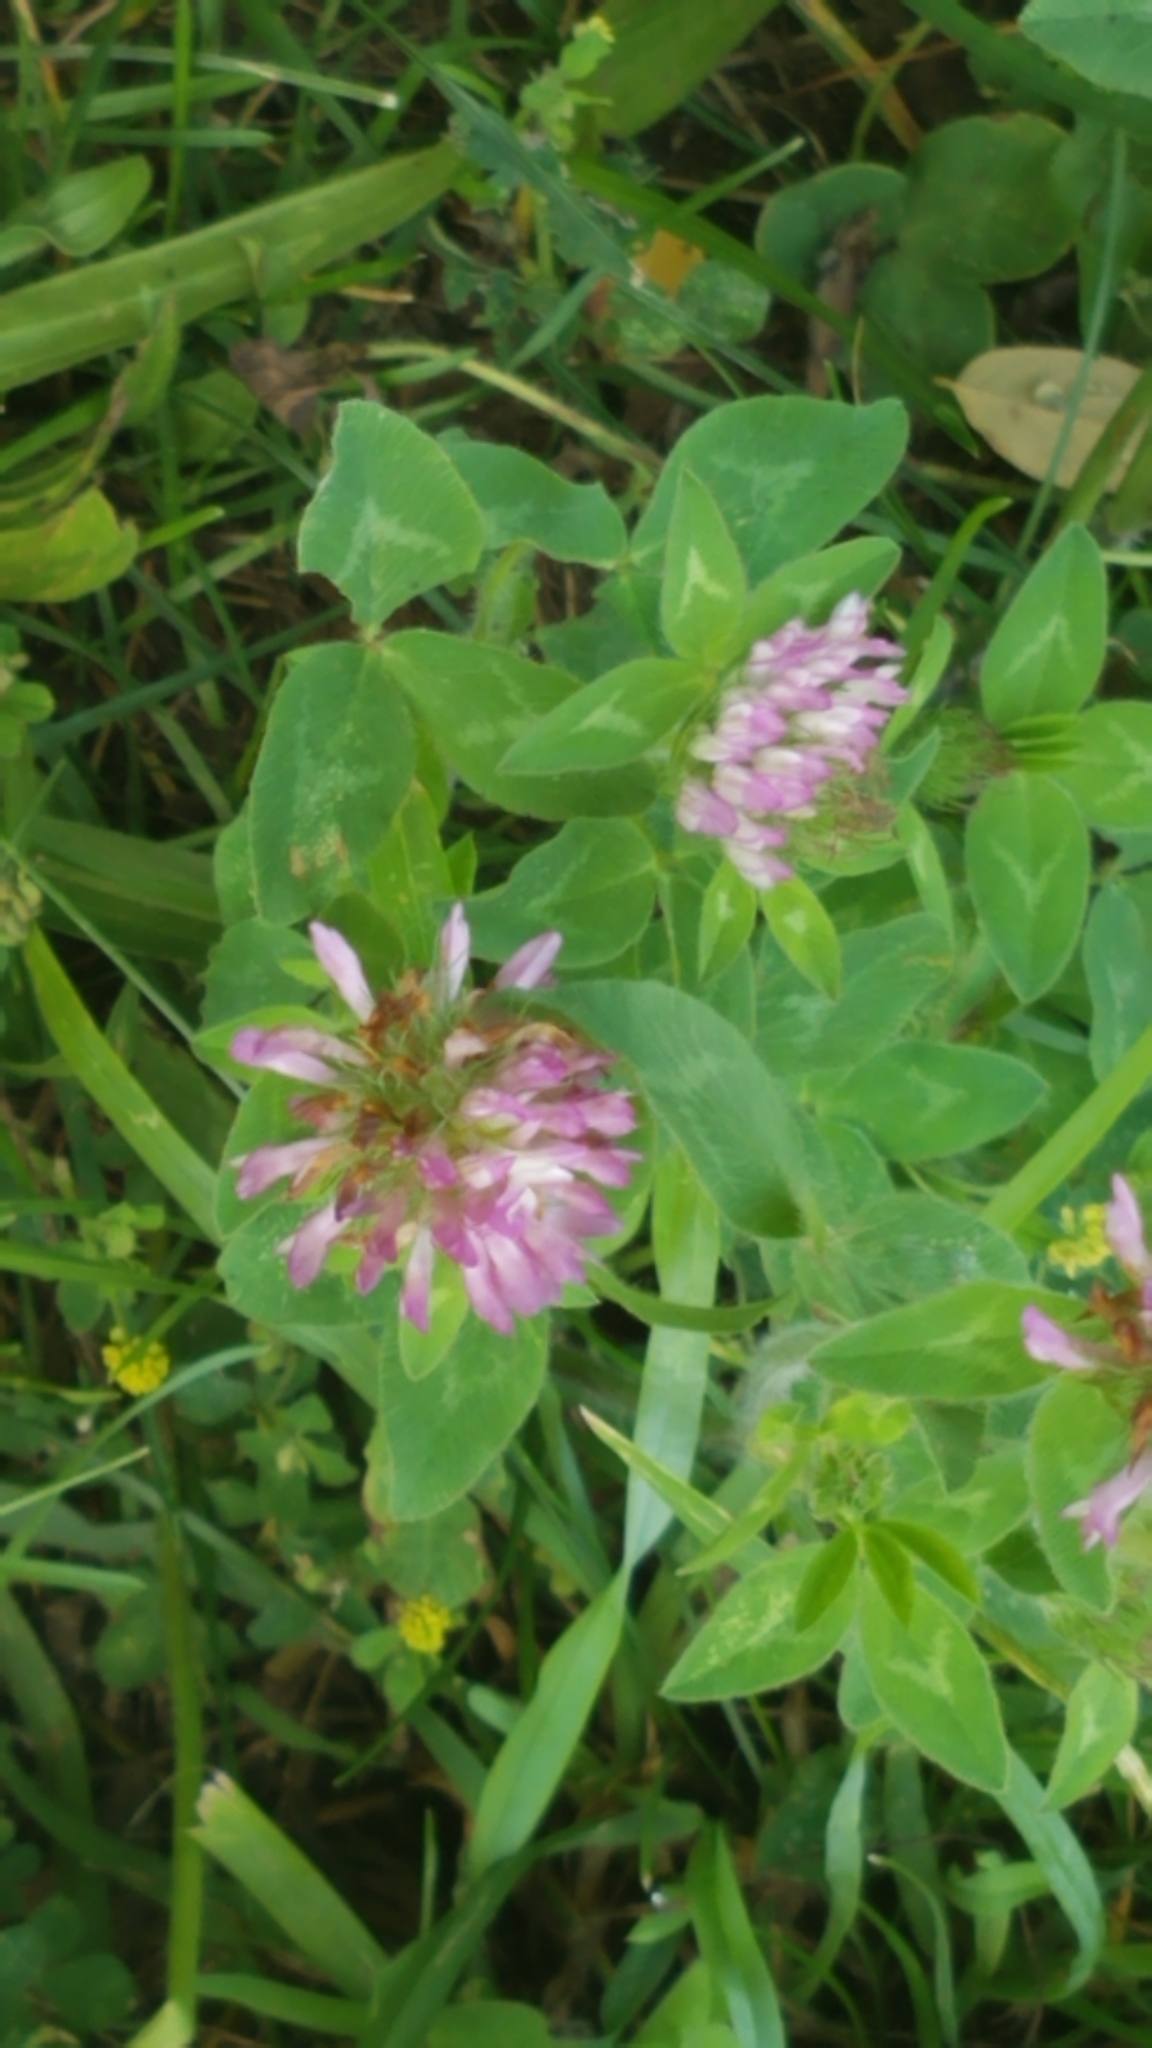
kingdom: Plantae
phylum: Tracheophyta
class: Magnoliopsida
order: Fabales
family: Fabaceae
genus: Trifolium
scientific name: Trifolium pratense
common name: Red clover
